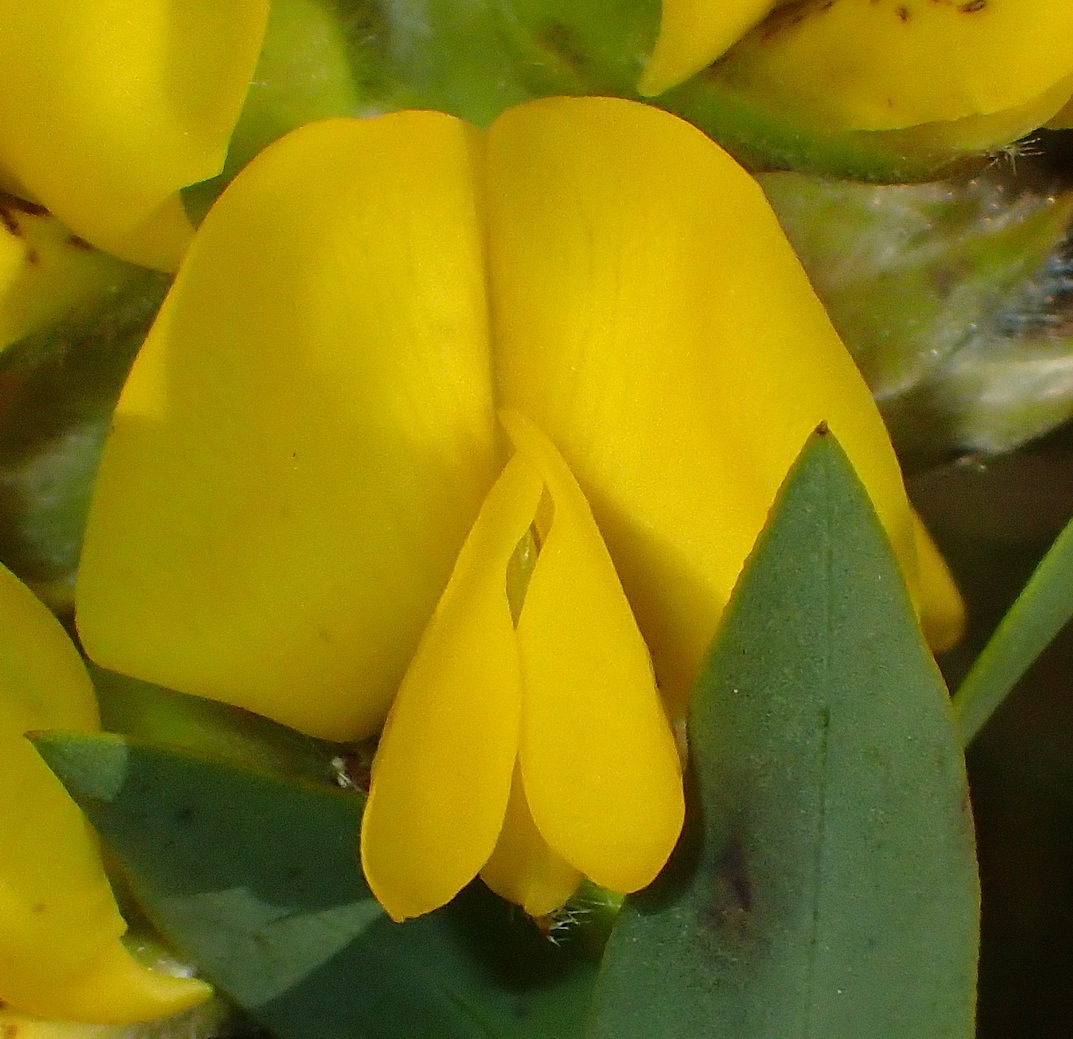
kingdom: Plantae
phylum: Tracheophyta
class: Magnoliopsida
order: Fabales
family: Fabaceae
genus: Liparia
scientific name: Liparia hirsuta
